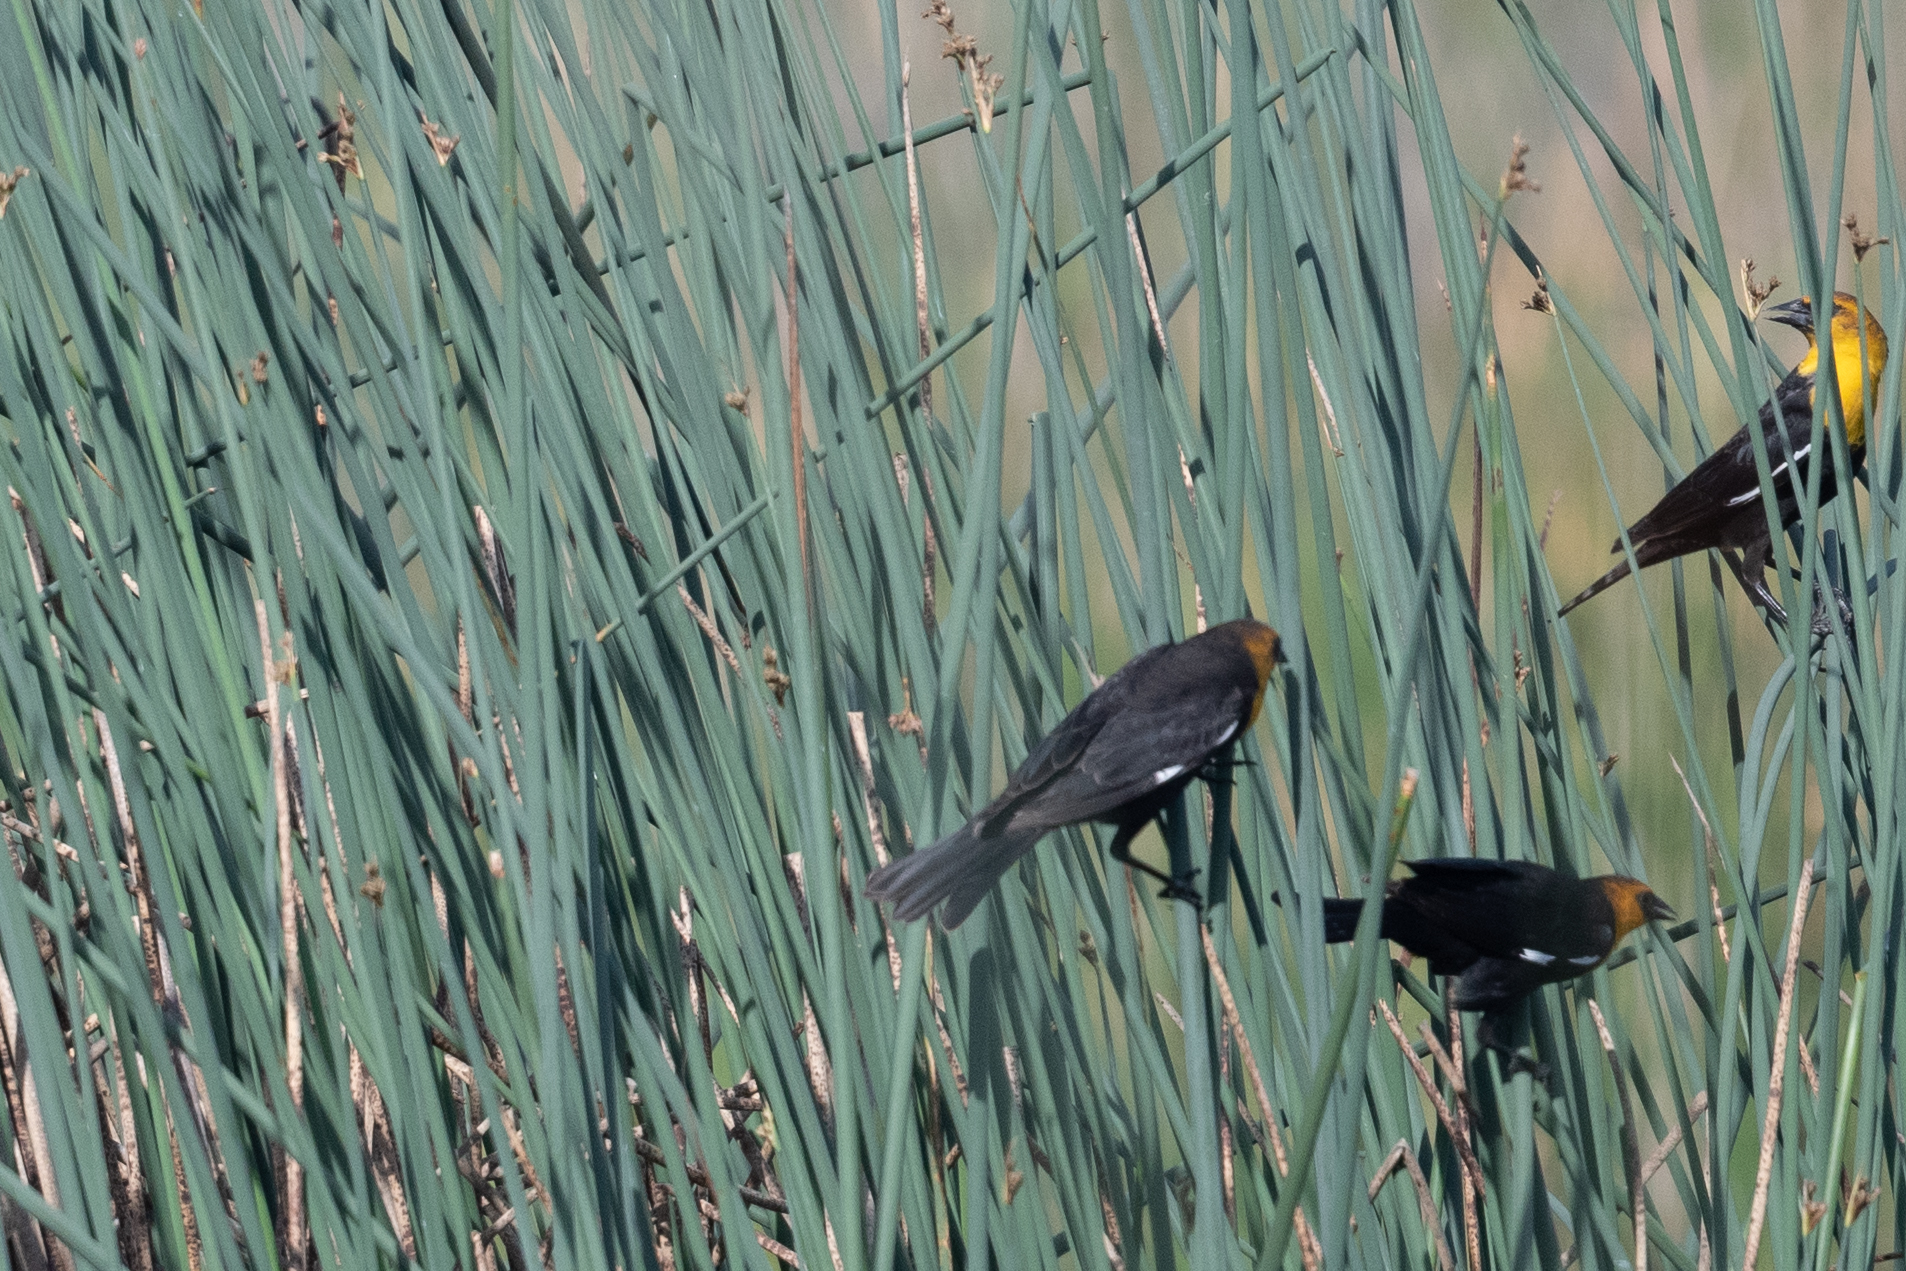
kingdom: Animalia
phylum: Chordata
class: Aves
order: Passeriformes
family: Icteridae
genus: Xanthocephalus
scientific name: Xanthocephalus xanthocephalus
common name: Yellow-headed blackbird
